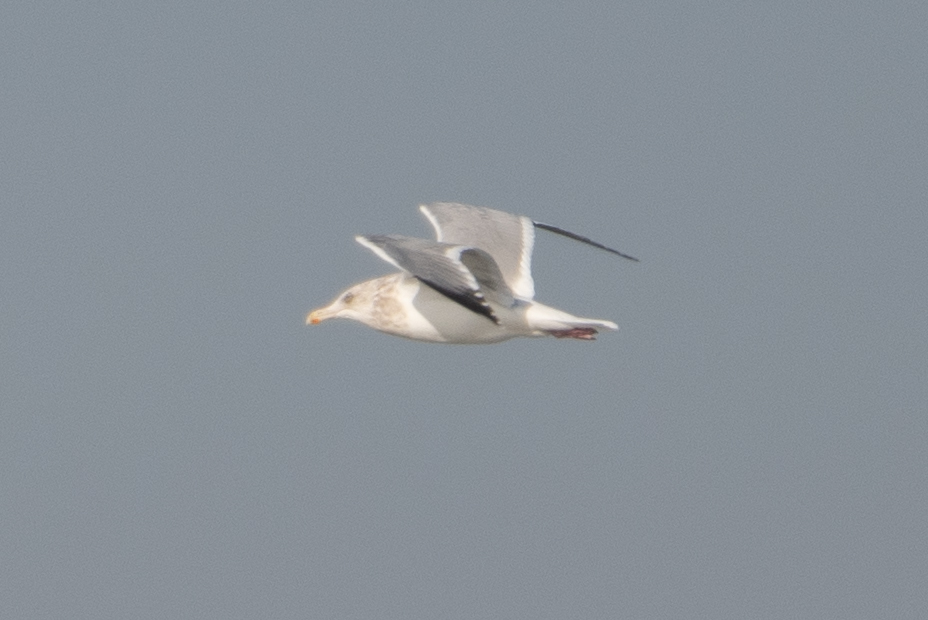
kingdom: Animalia
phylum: Chordata
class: Aves
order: Charadriiformes
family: Laridae
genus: Larus
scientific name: Larus argentatus
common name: Herring gull
